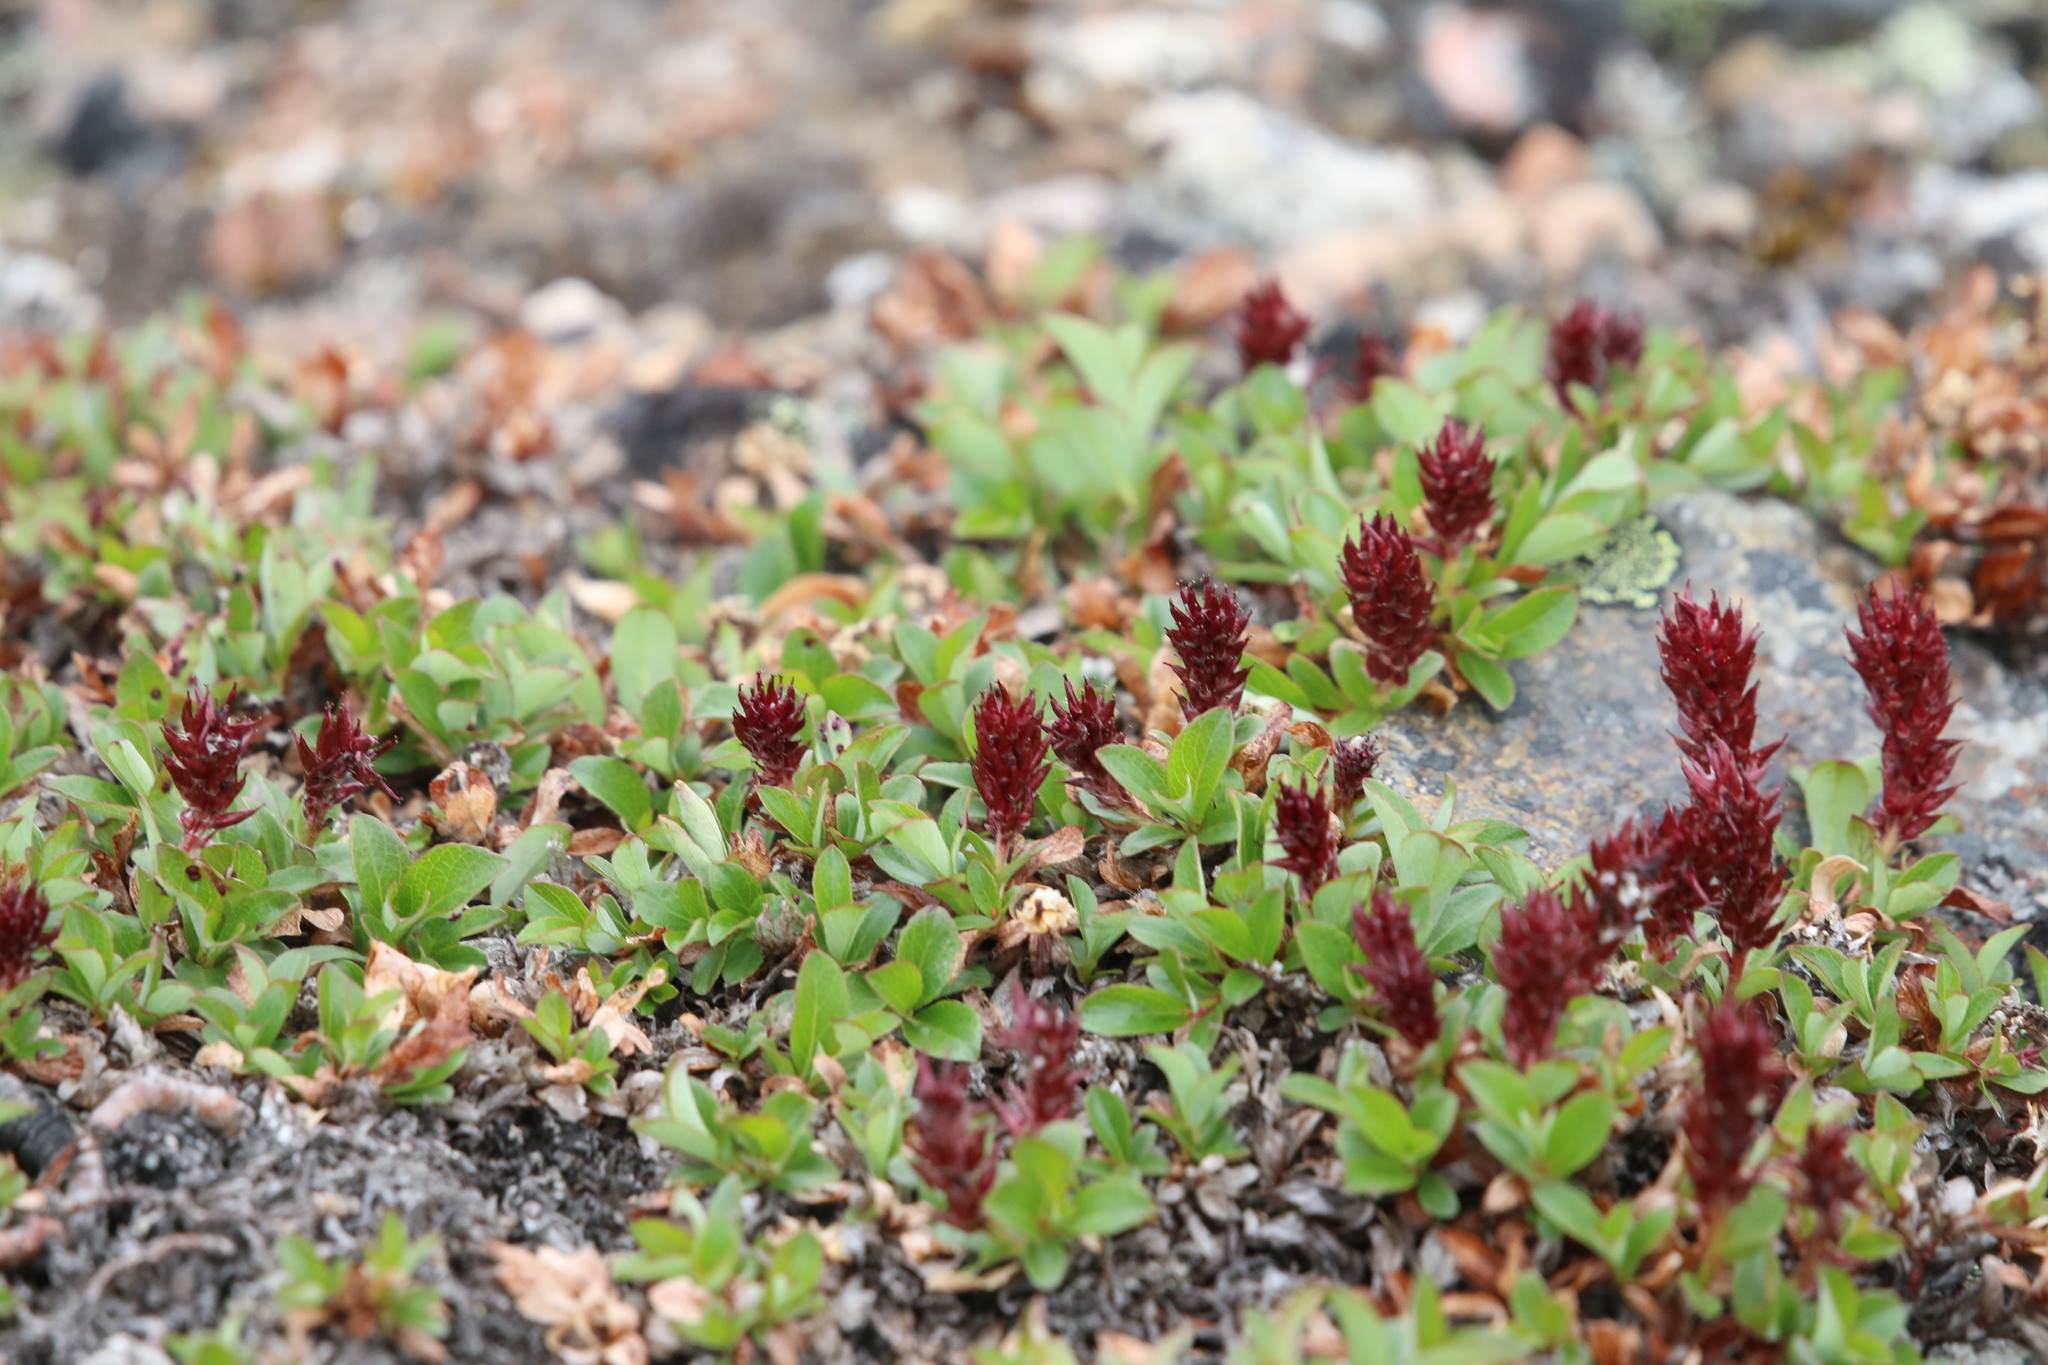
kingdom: Plantae
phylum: Tracheophyta
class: Magnoliopsida
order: Malpighiales
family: Salicaceae
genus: Salix
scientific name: Salix uva-ursi
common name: Bearberry willow
